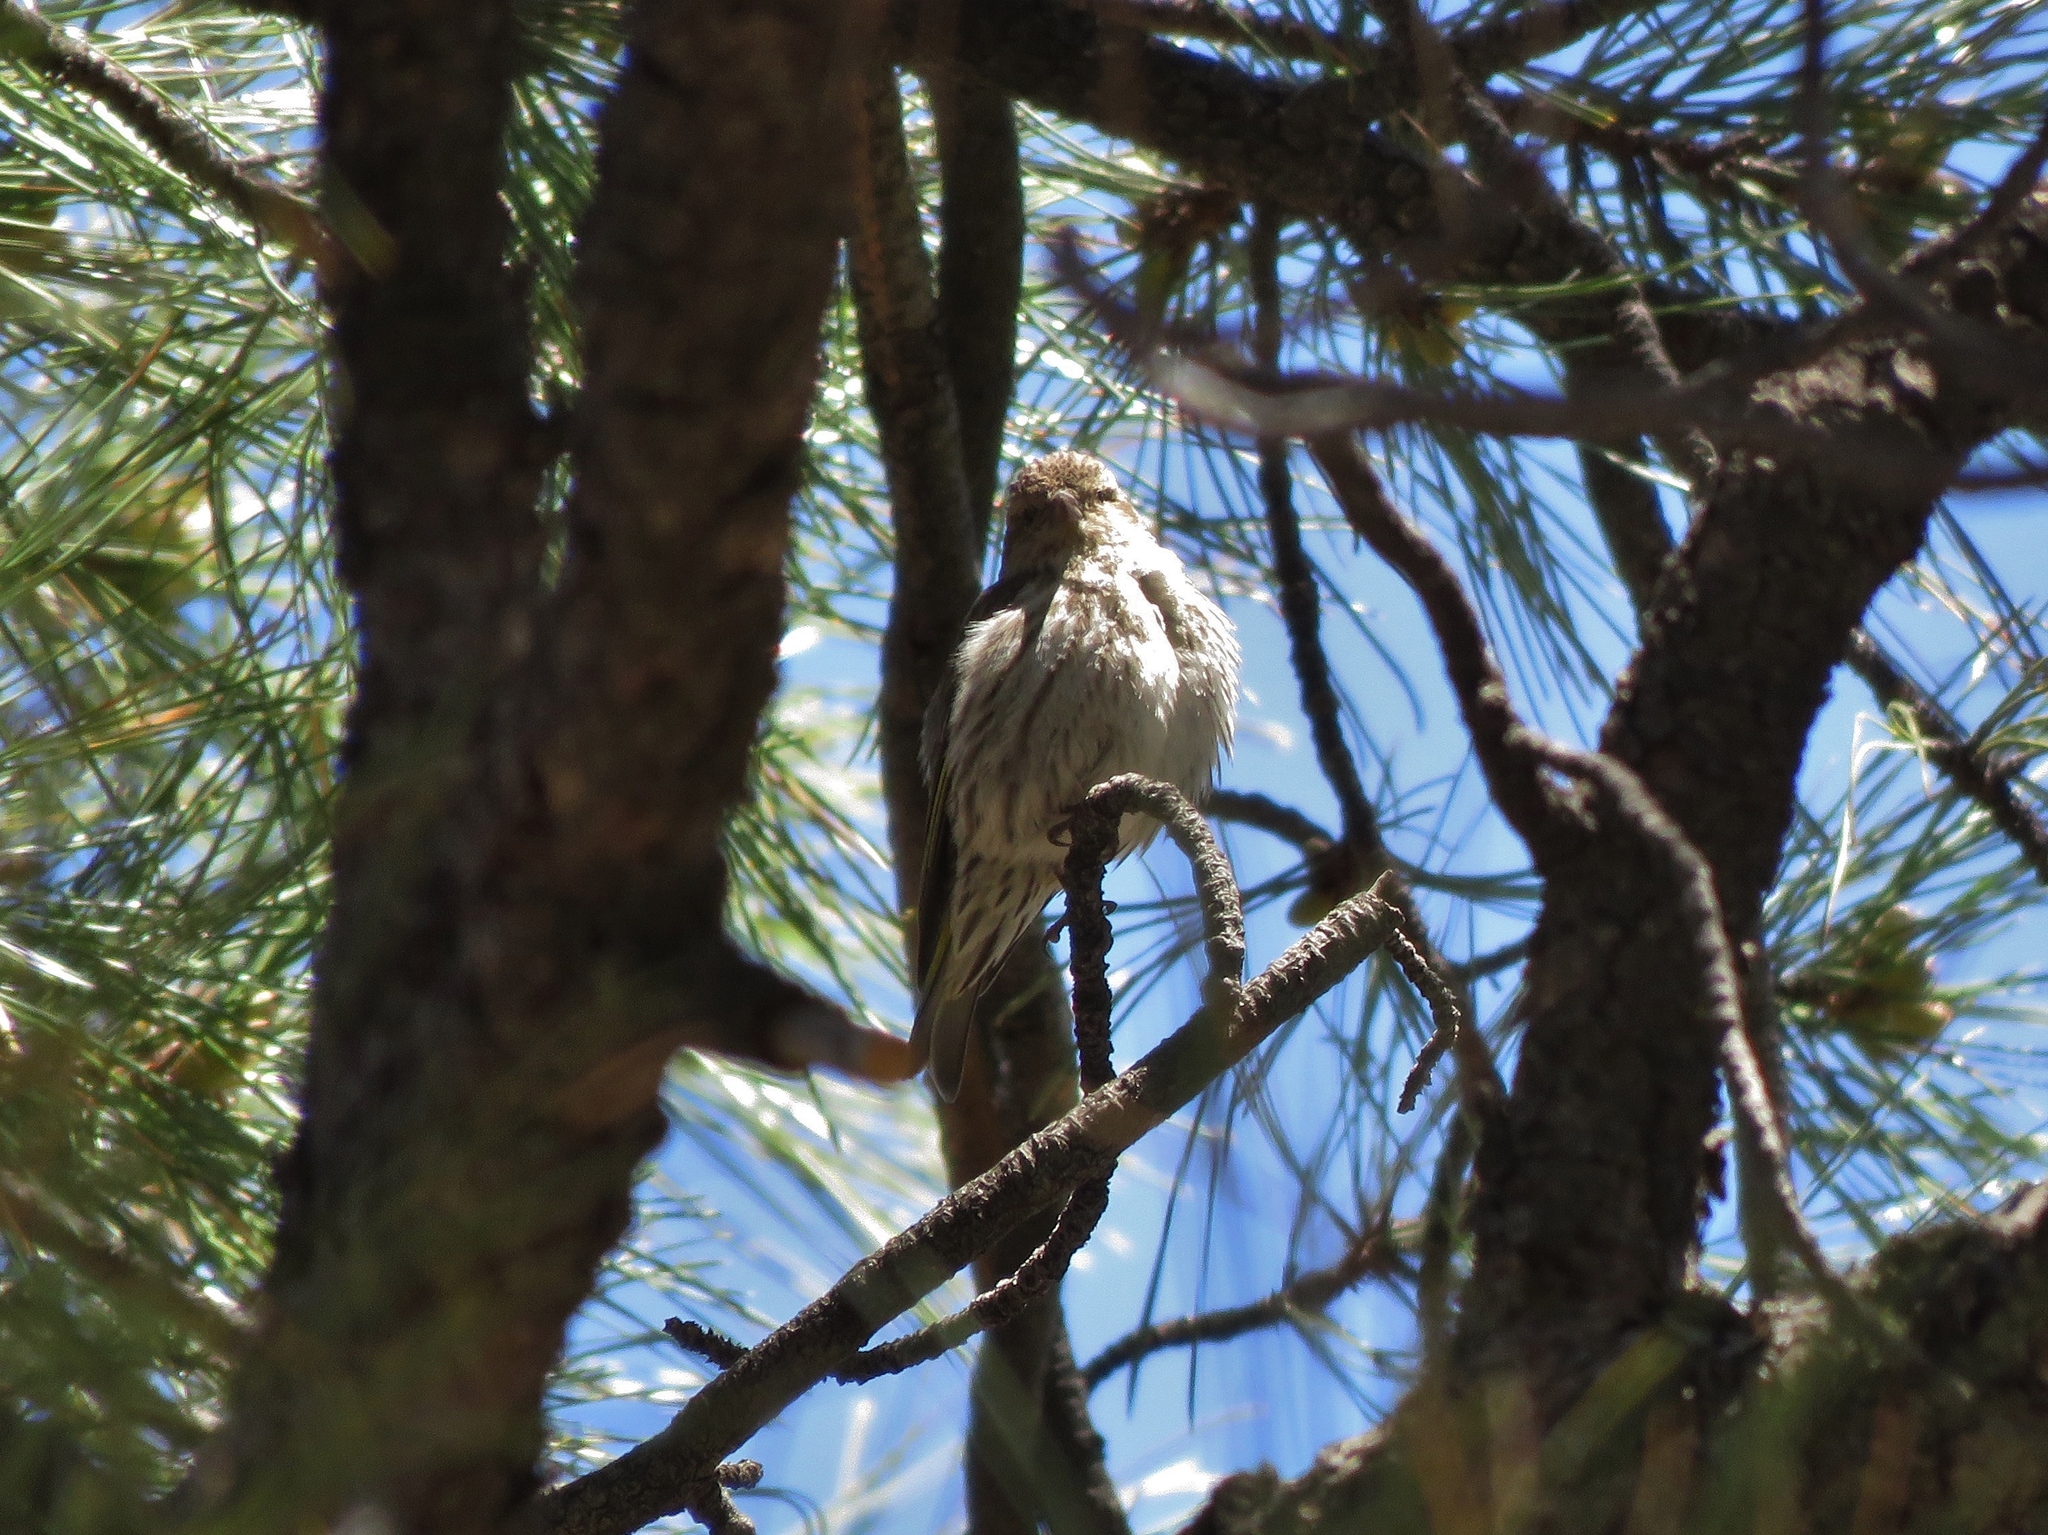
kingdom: Animalia
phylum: Chordata
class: Aves
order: Passeriformes
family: Fringillidae
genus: Spinus
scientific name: Spinus pinus
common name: Pine siskin
